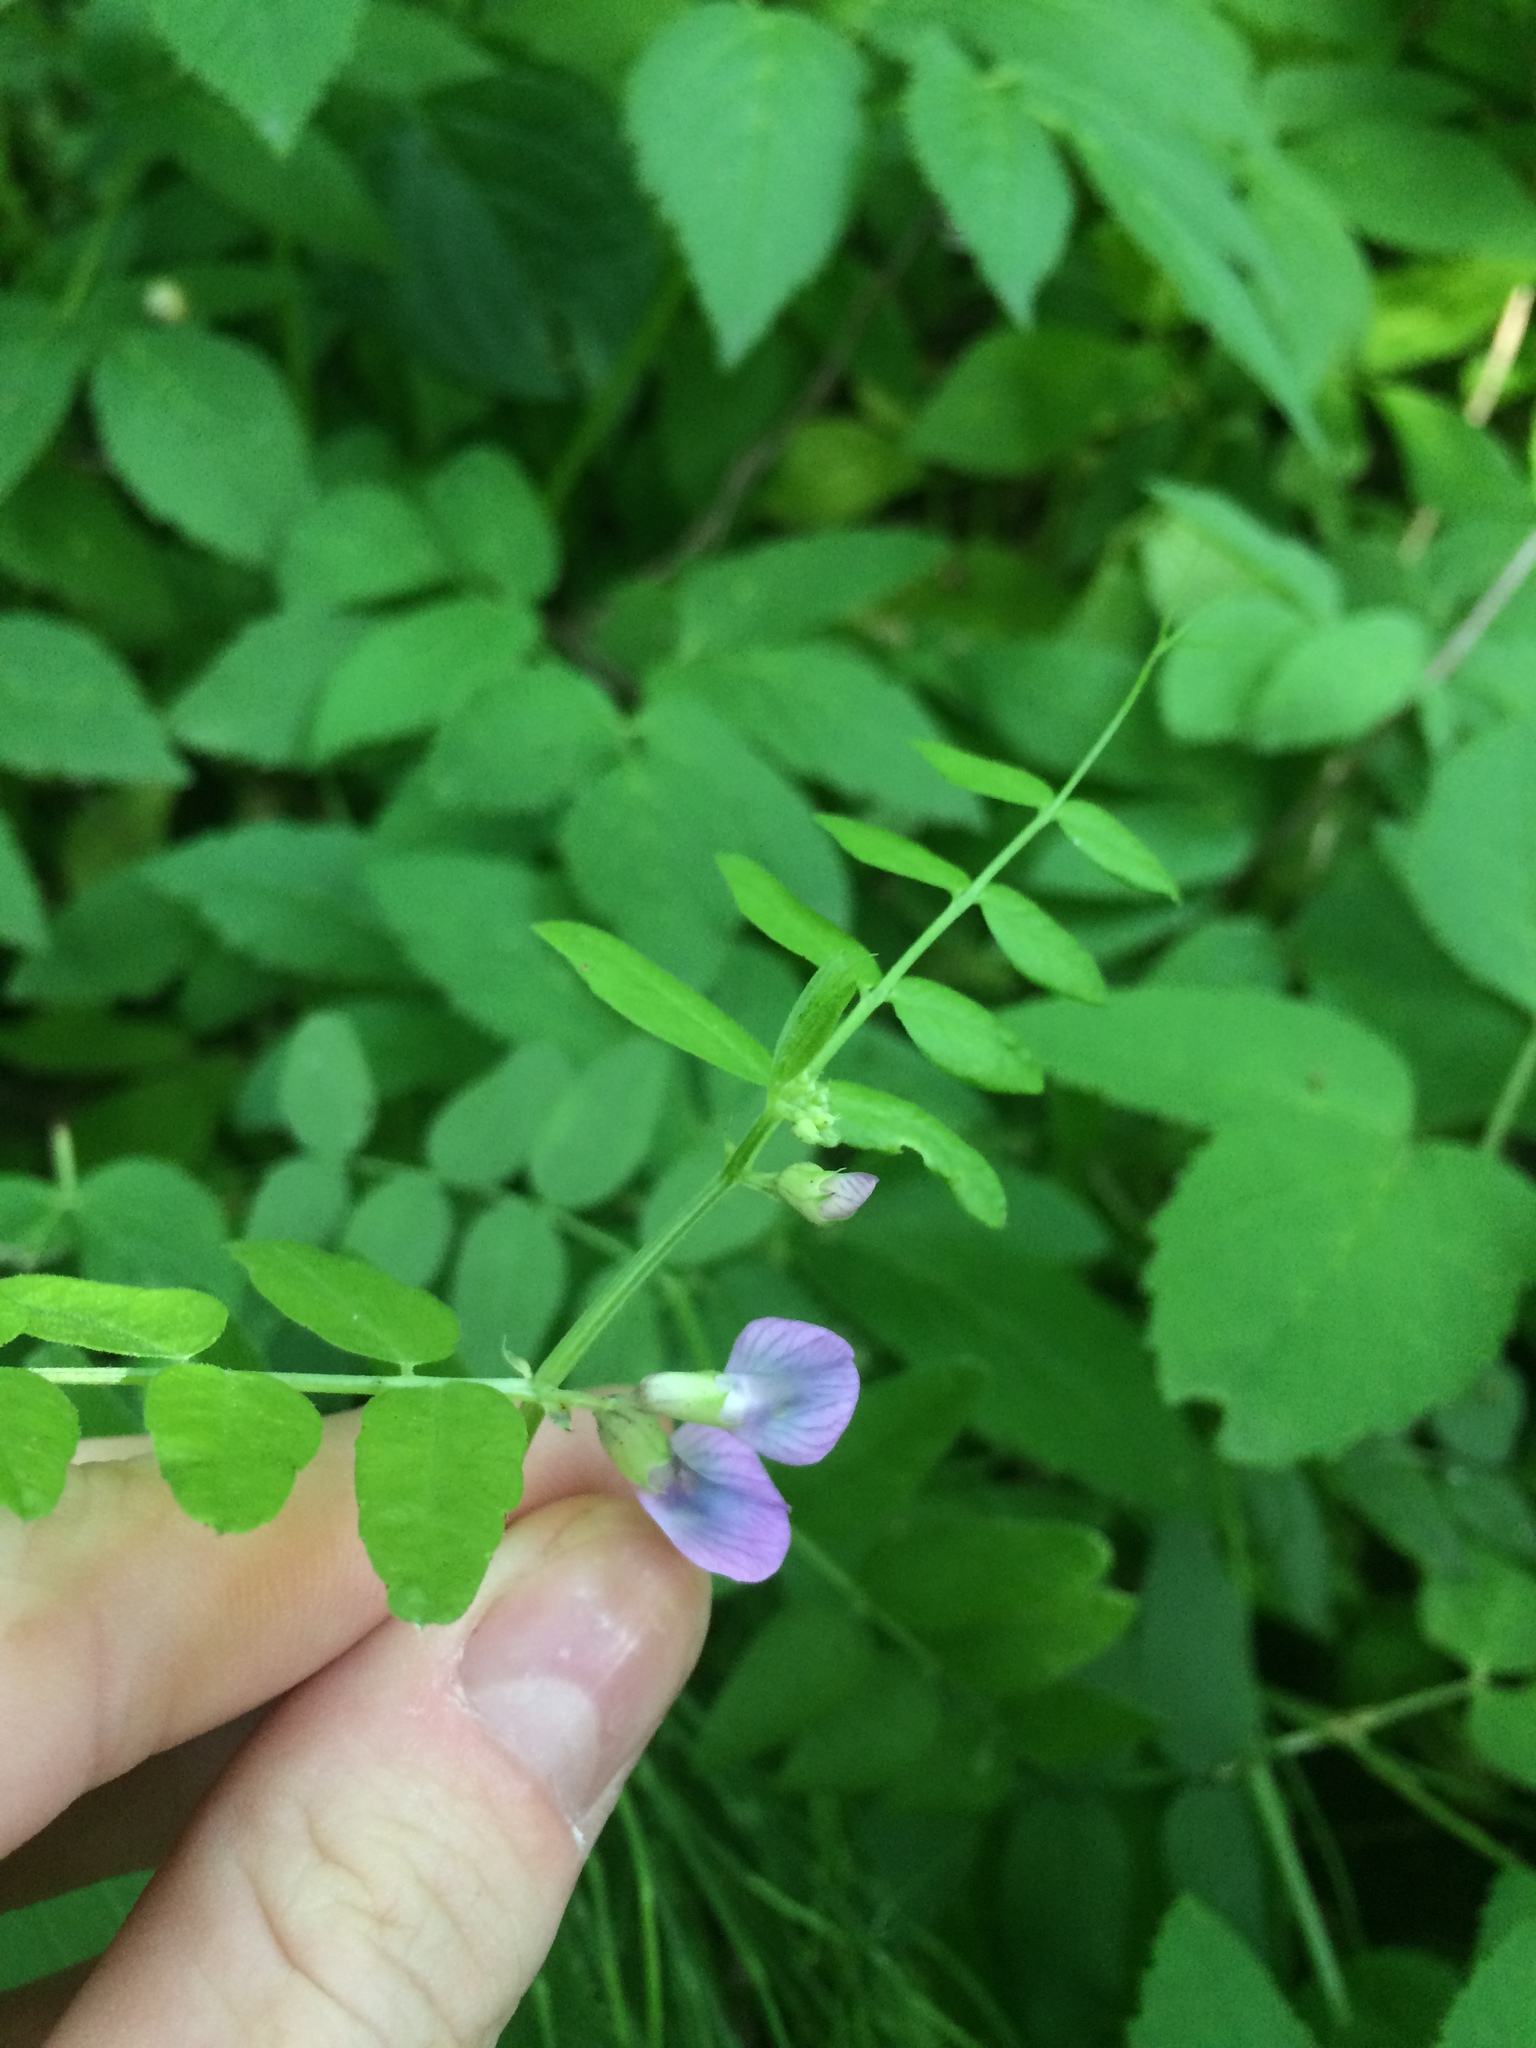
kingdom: Plantae
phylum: Tracheophyta
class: Magnoliopsida
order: Fabales
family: Fabaceae
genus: Vicia
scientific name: Vicia sepium
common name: Bush vetch
